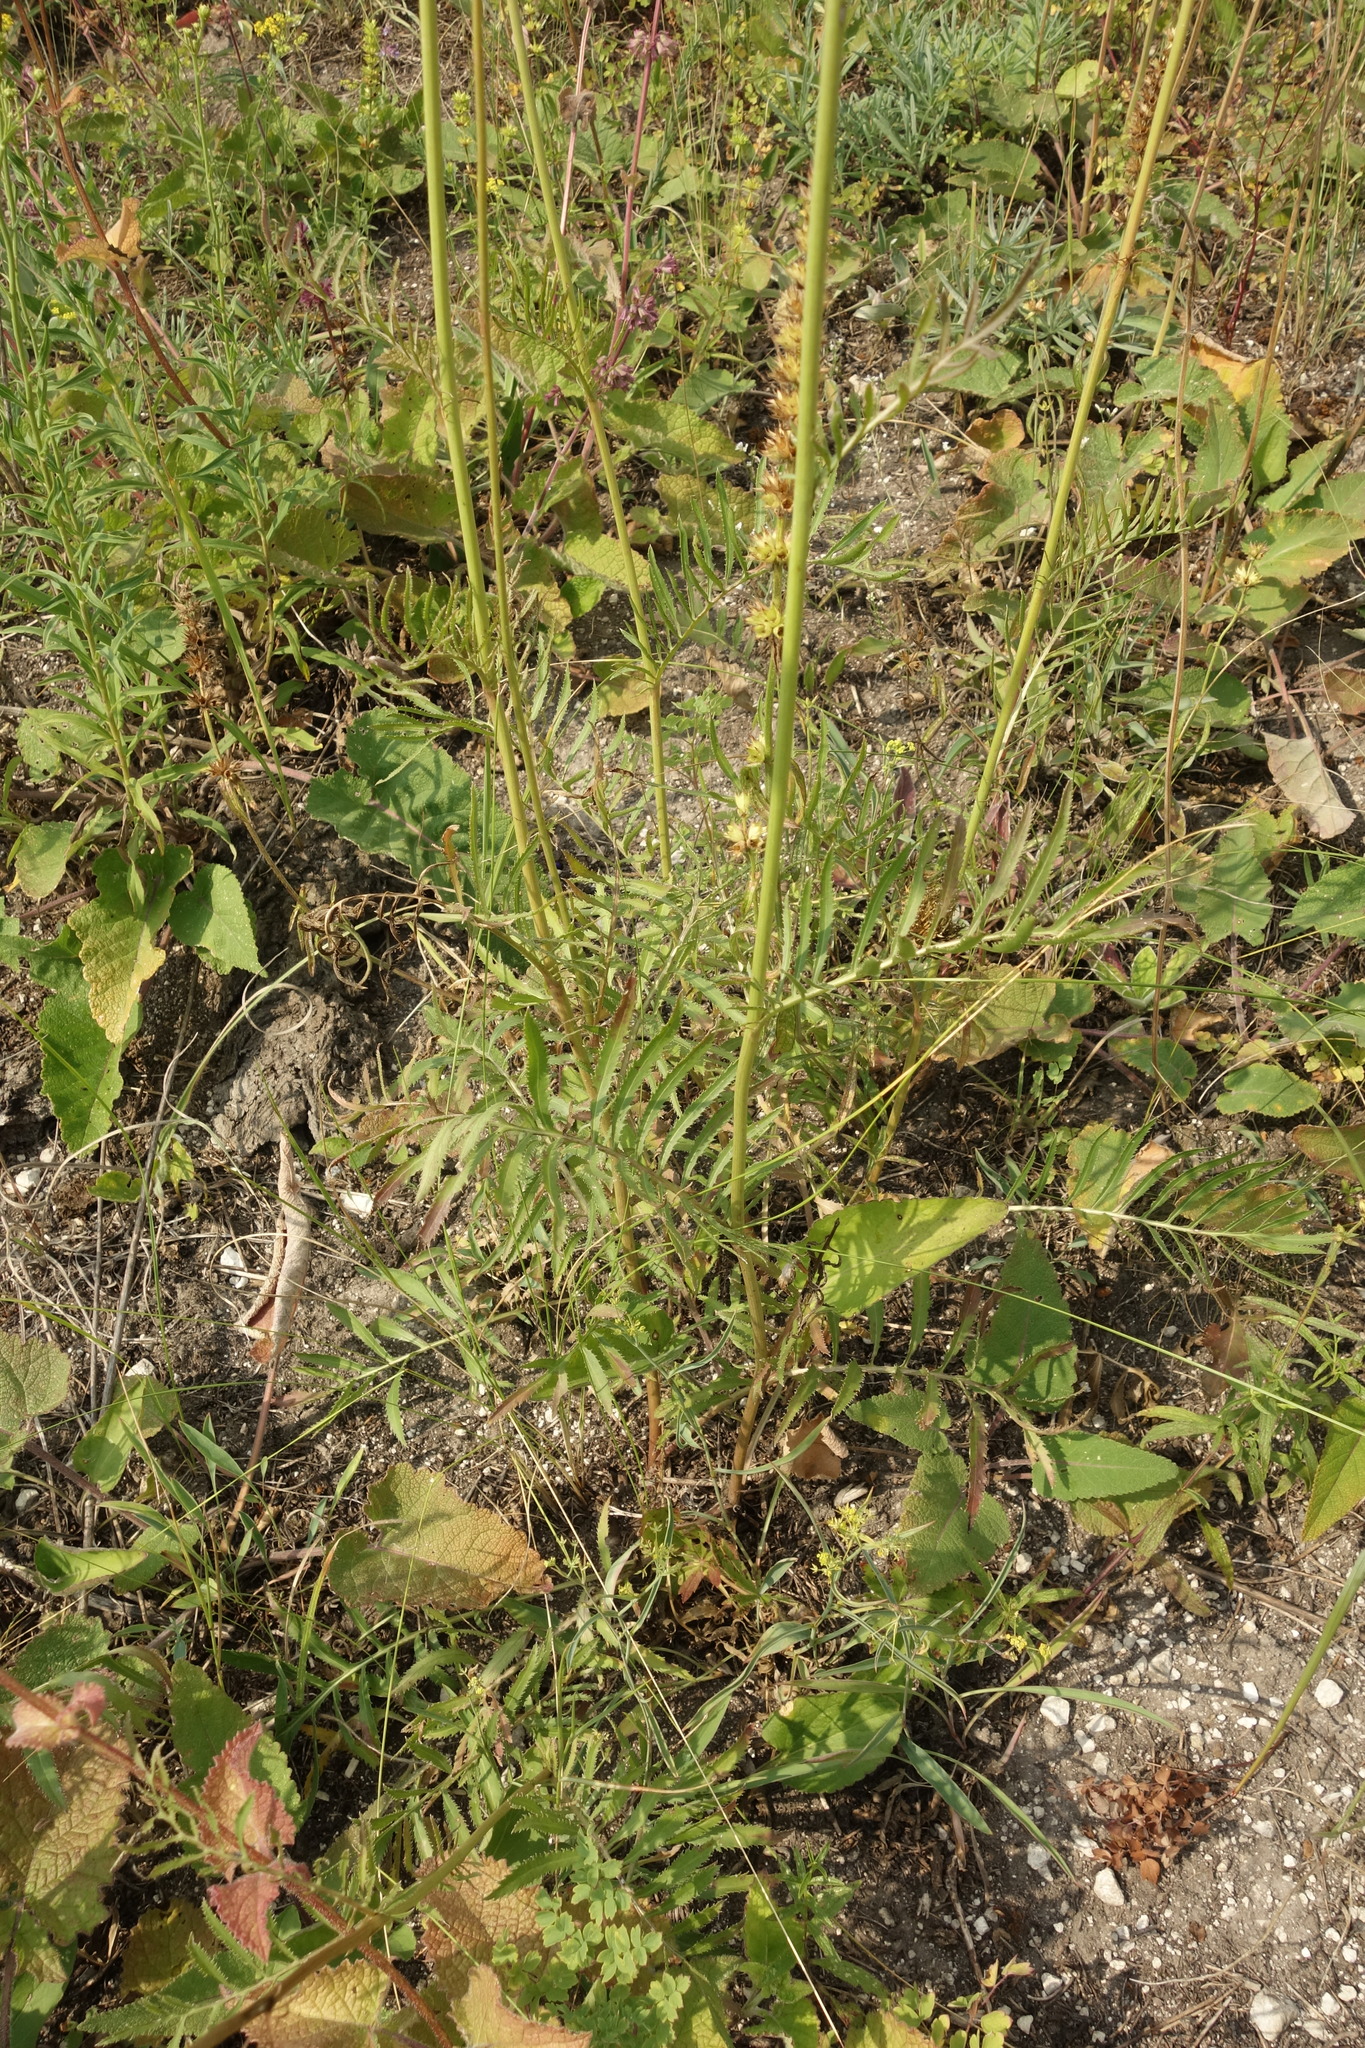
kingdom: Plantae
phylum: Tracheophyta
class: Magnoliopsida
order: Asterales
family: Asteraceae
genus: Rhaponticoides
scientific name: Rhaponticoides ruthenica
